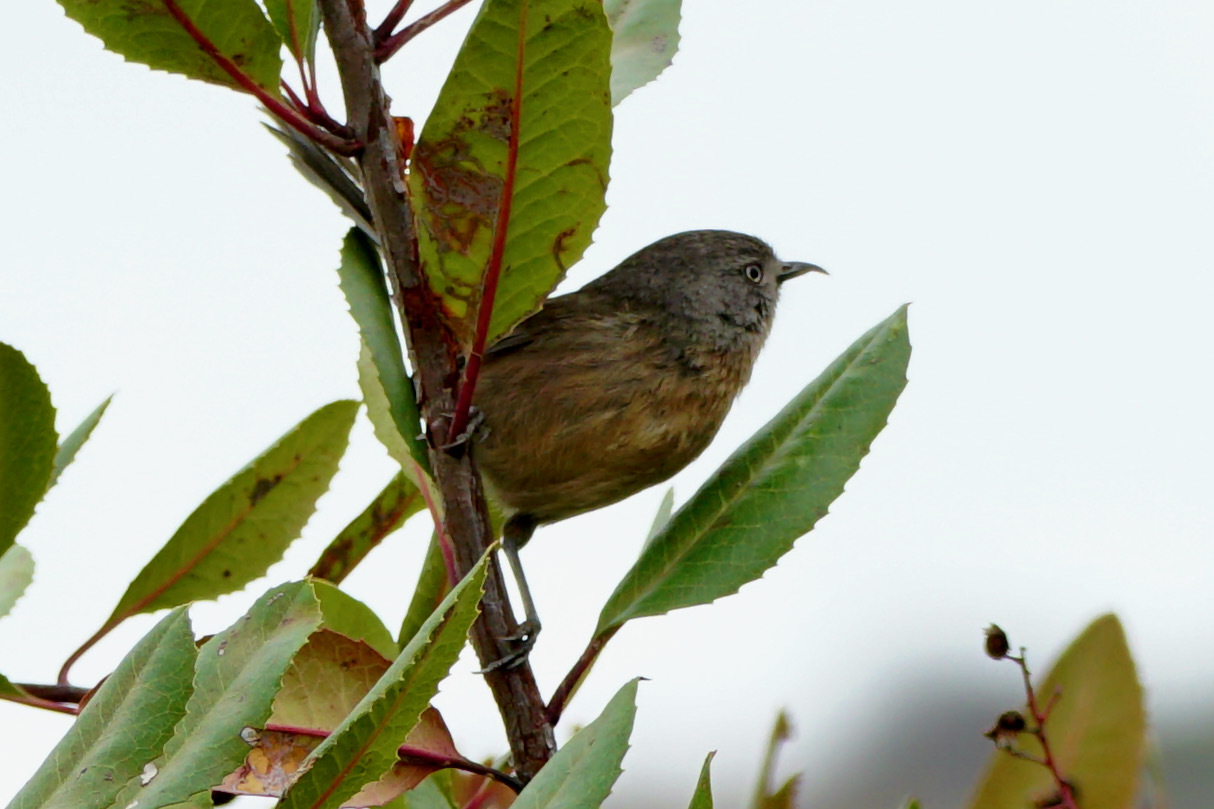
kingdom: Animalia
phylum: Chordata
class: Aves
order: Passeriformes
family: Sylviidae
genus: Chamaea
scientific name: Chamaea fasciata
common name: Wrentit
